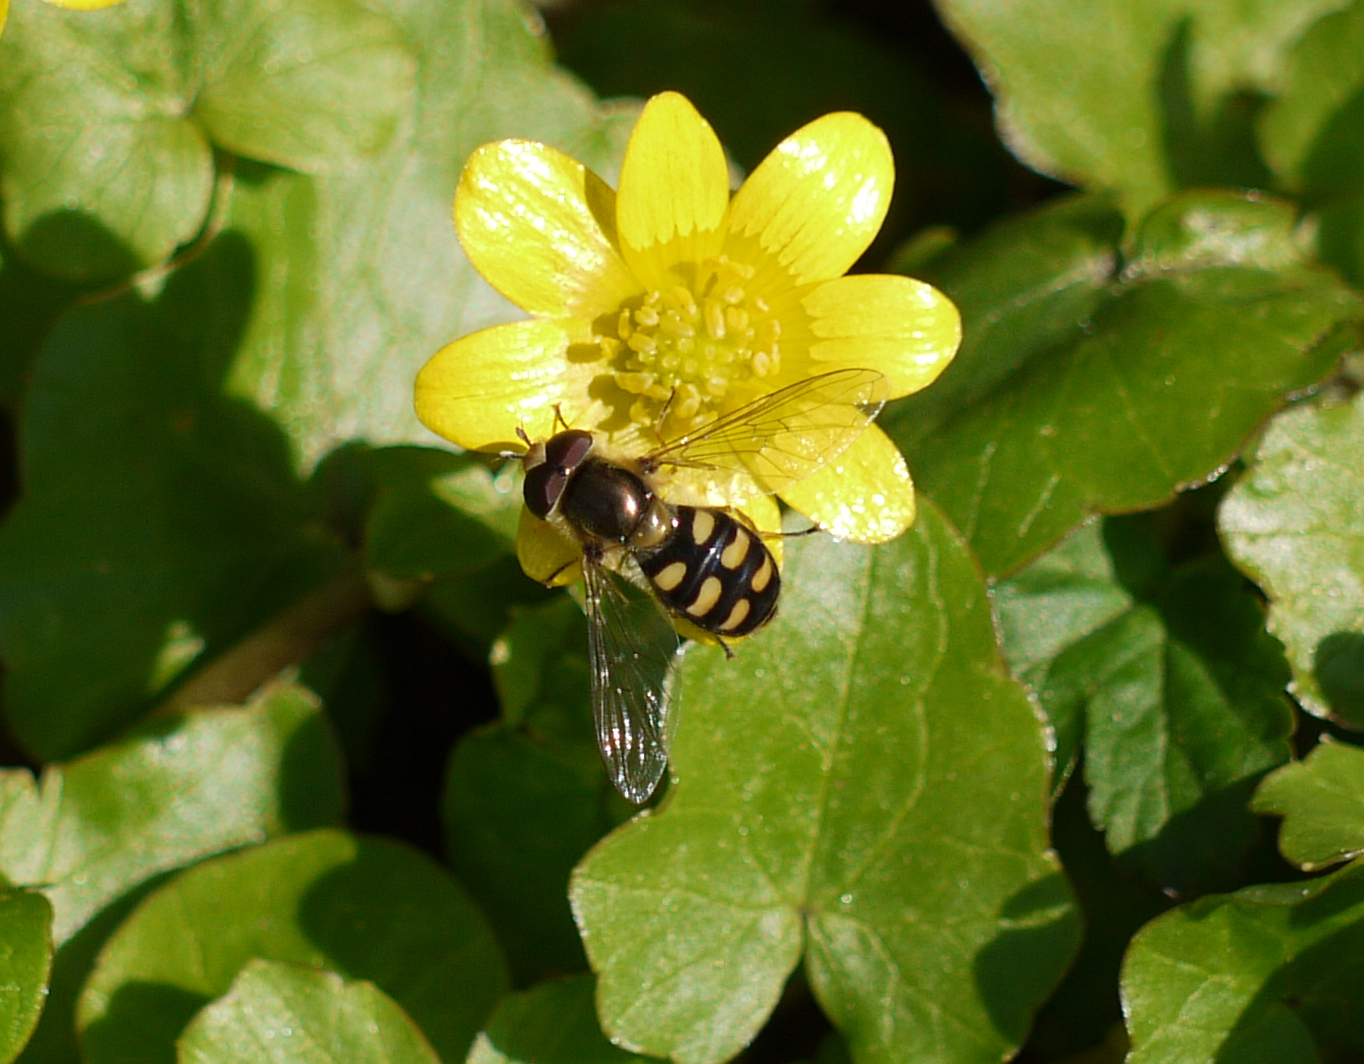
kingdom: Animalia
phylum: Arthropoda
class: Insecta
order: Diptera
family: Syrphidae
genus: Eupeodes
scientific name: Eupeodes luniger
